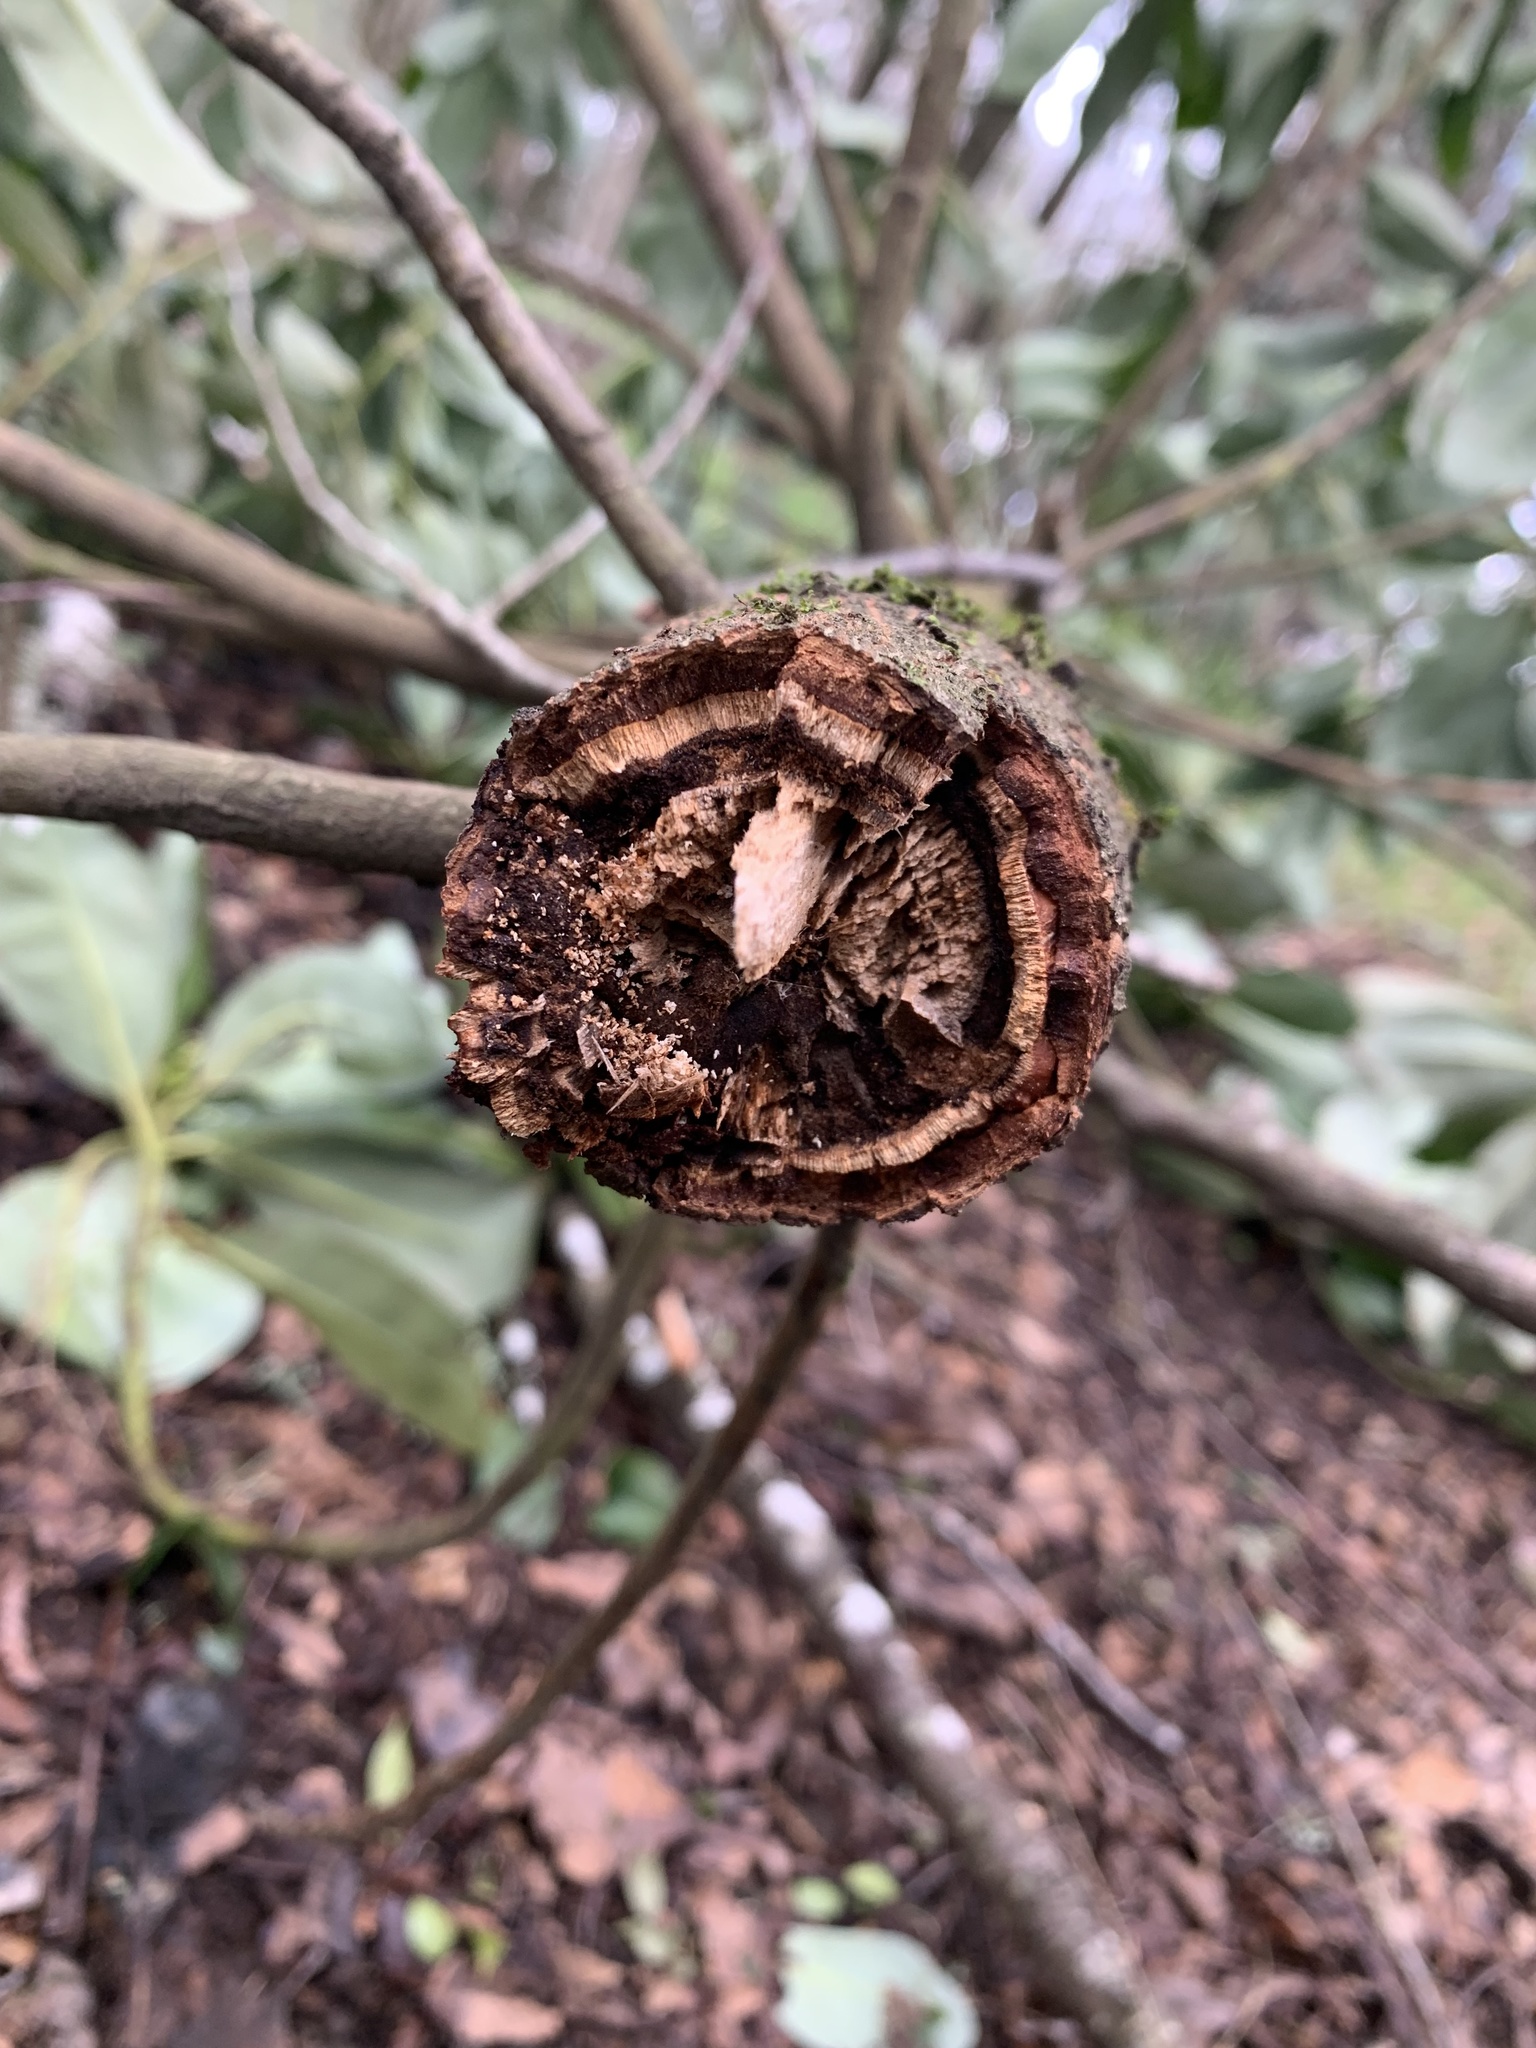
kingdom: Plantae
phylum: Tracheophyta
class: Magnoliopsida
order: Canellales
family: Winteraceae
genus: Drimys
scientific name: Drimys winteri
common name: Winter's-bark
